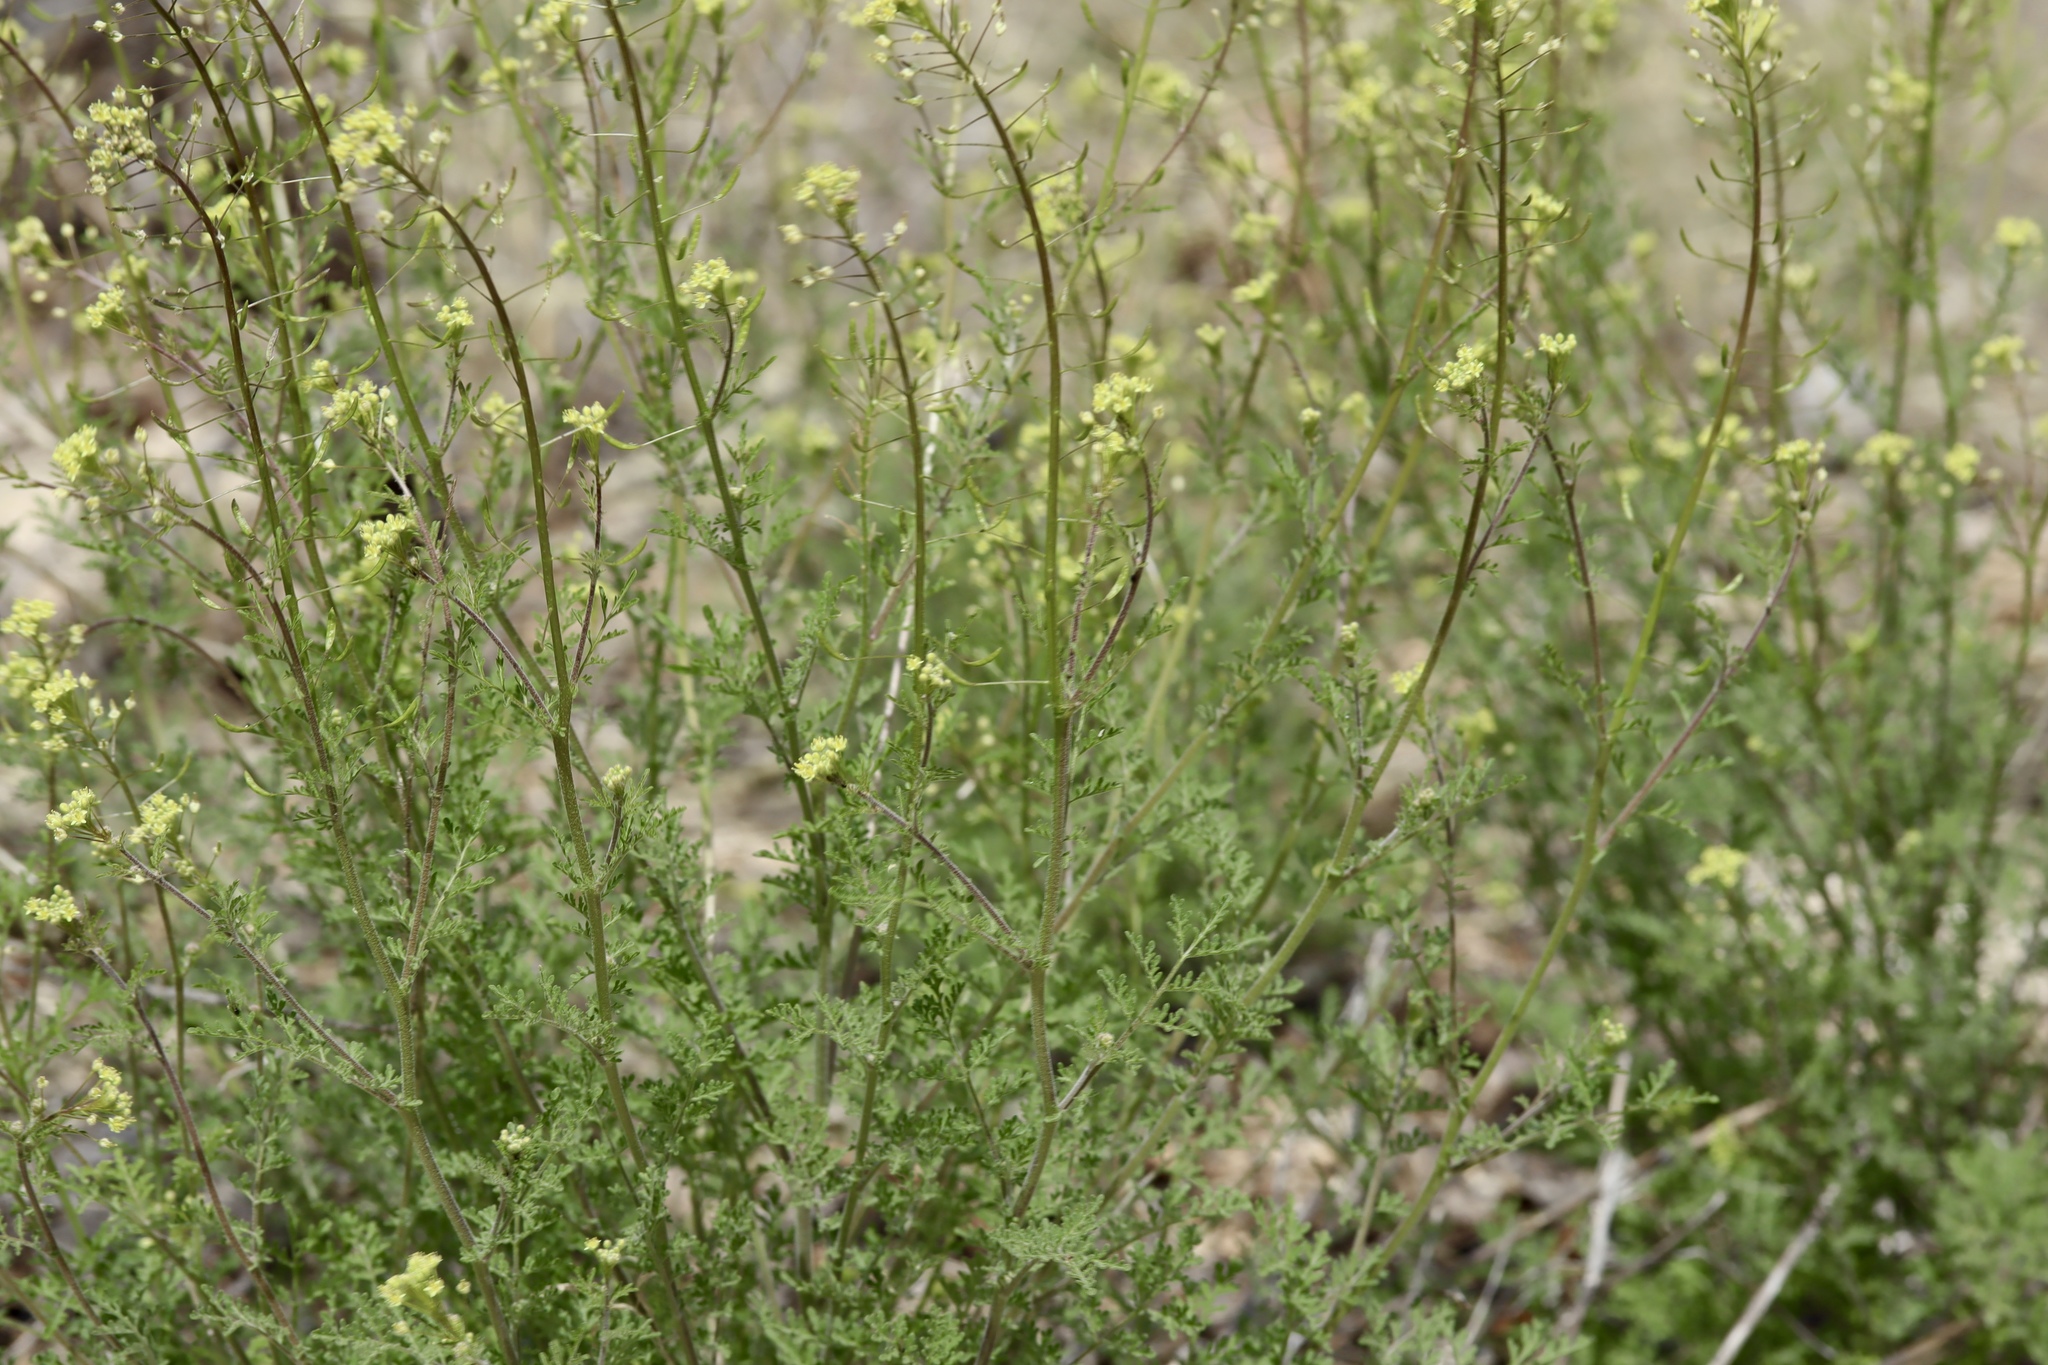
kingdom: Plantae
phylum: Tracheophyta
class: Magnoliopsida
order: Brassicales
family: Brassicaceae
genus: Descurainia
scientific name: Descurainia pinnata
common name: Western tansy mustard
